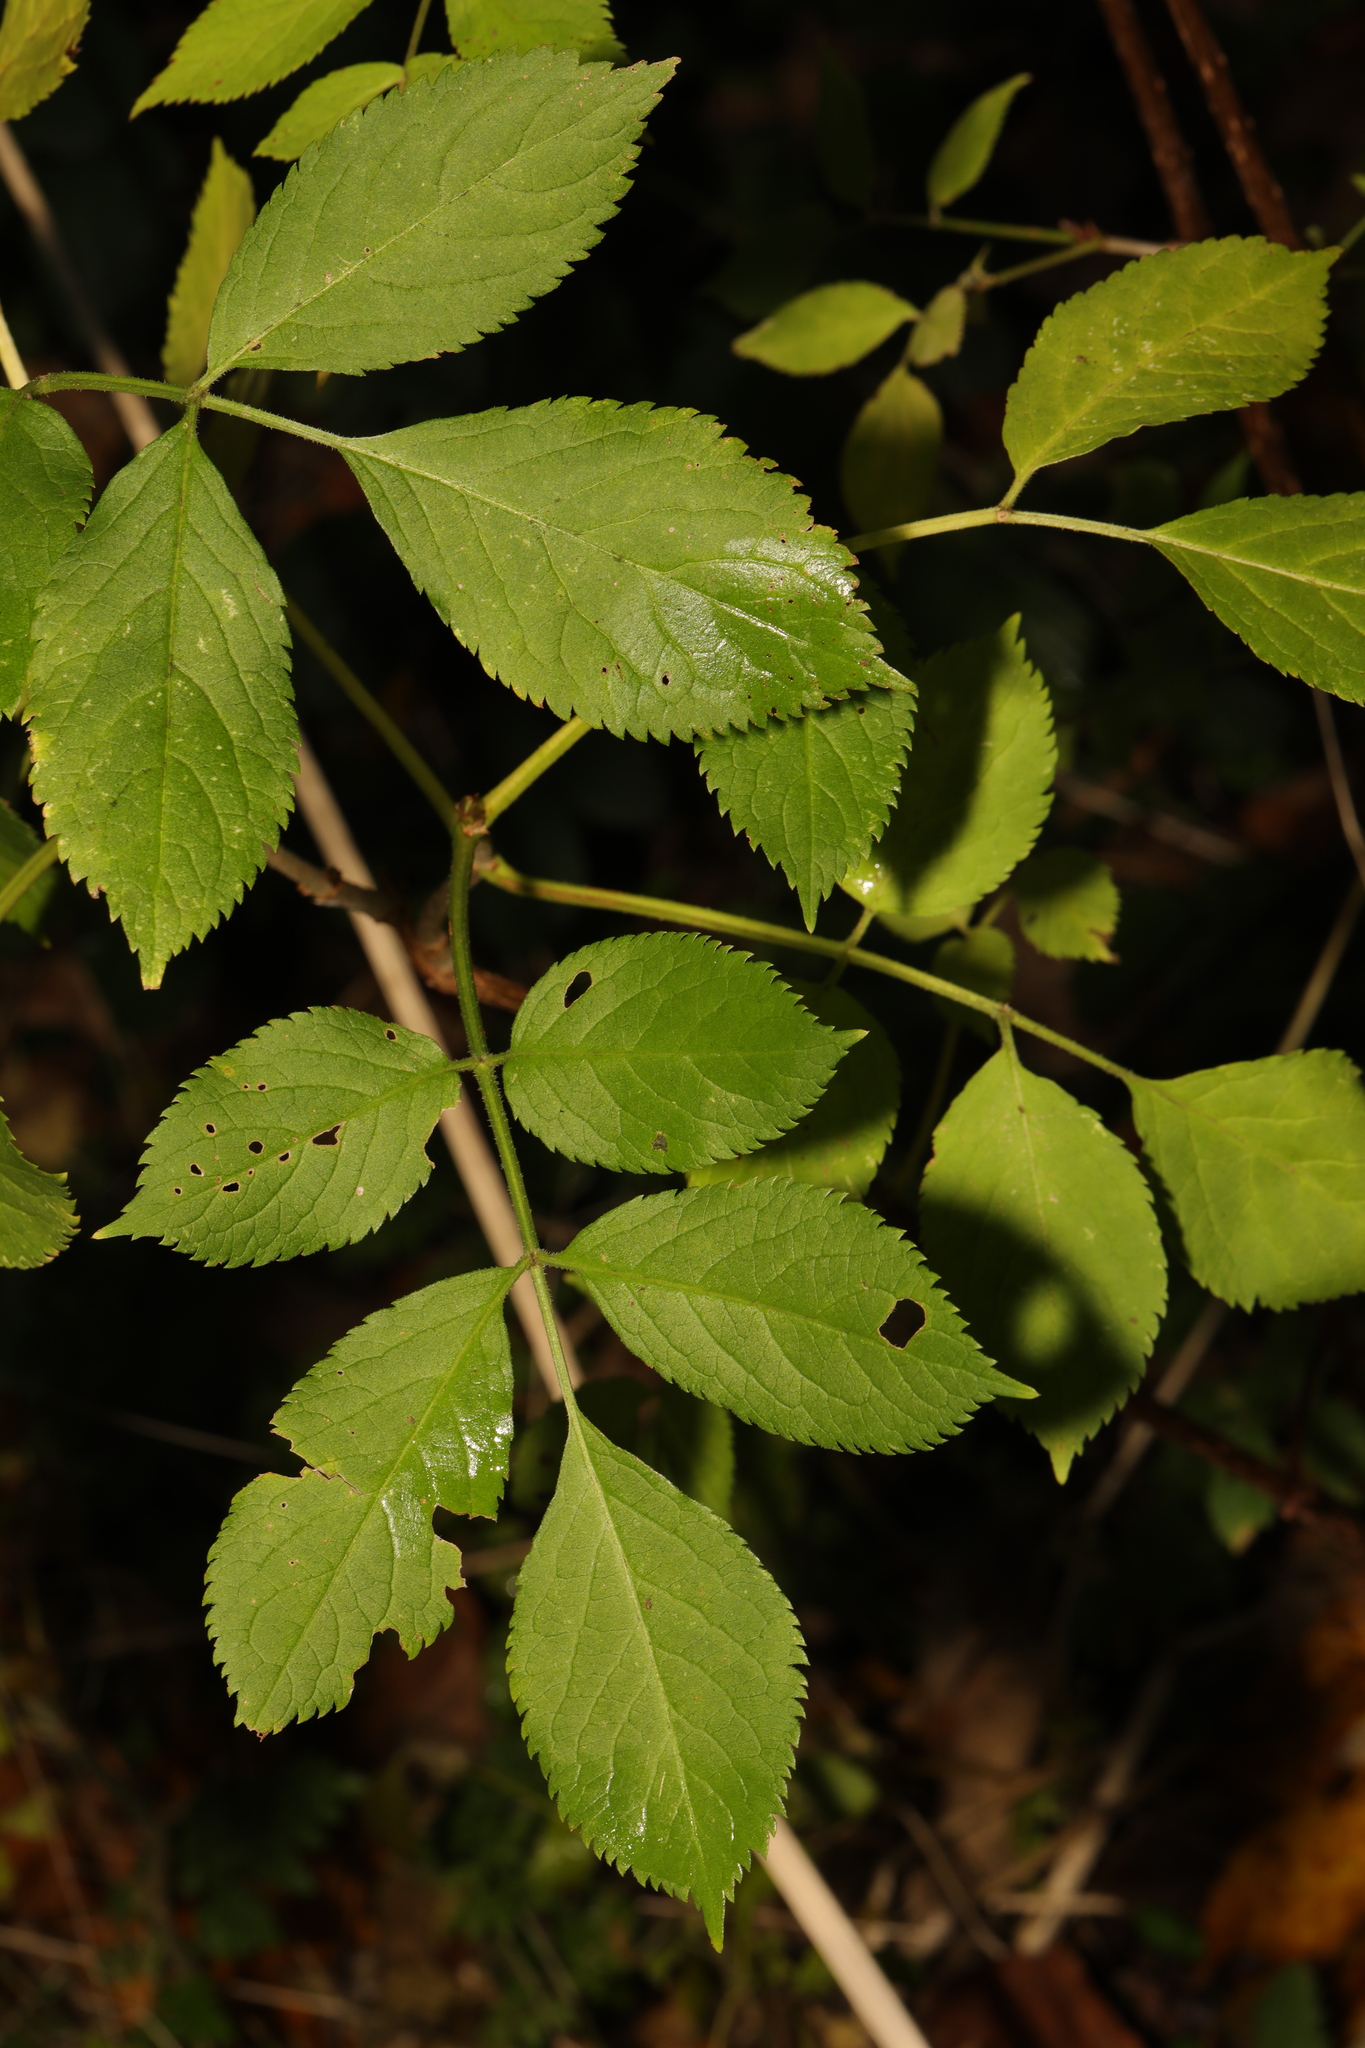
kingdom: Plantae
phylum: Tracheophyta
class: Magnoliopsida
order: Dipsacales
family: Viburnaceae
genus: Sambucus
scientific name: Sambucus nigra
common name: Elder
